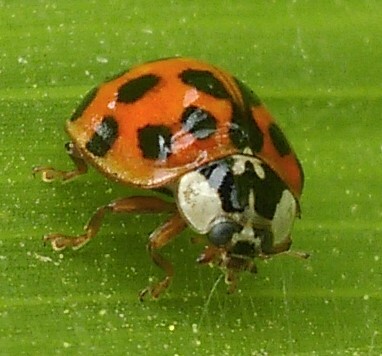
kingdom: Animalia
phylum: Arthropoda
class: Insecta
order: Coleoptera
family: Coccinellidae
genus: Harmonia
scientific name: Harmonia axyridis
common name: Harlequin ladybird
